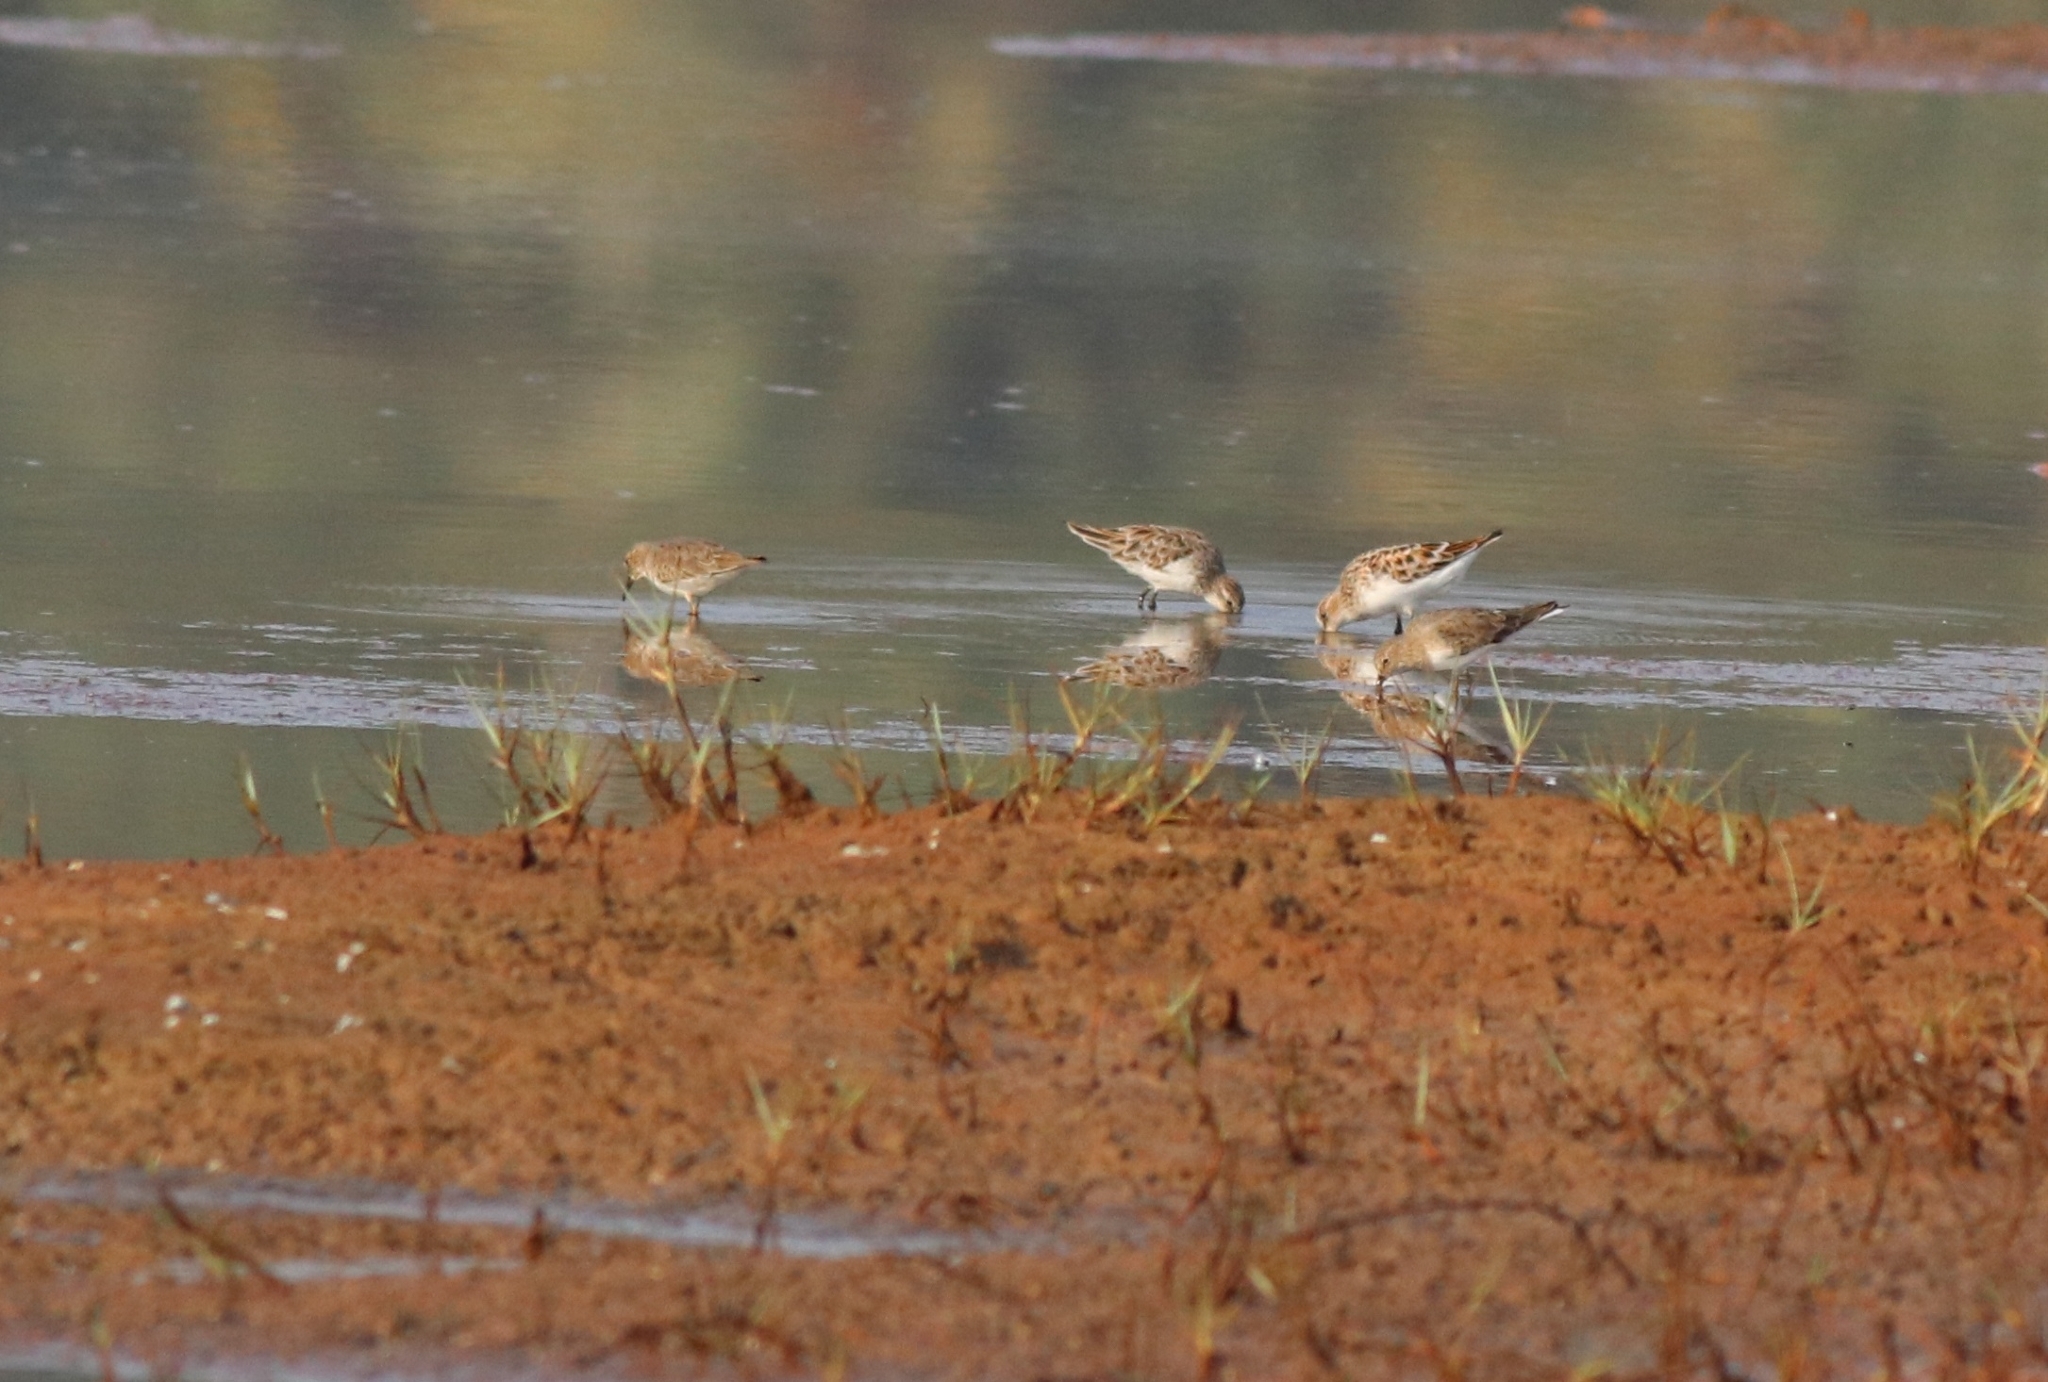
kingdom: Animalia
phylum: Chordata
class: Aves
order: Charadriiformes
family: Scolopacidae
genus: Calidris
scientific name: Calidris temminckii
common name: Temminck's stint
